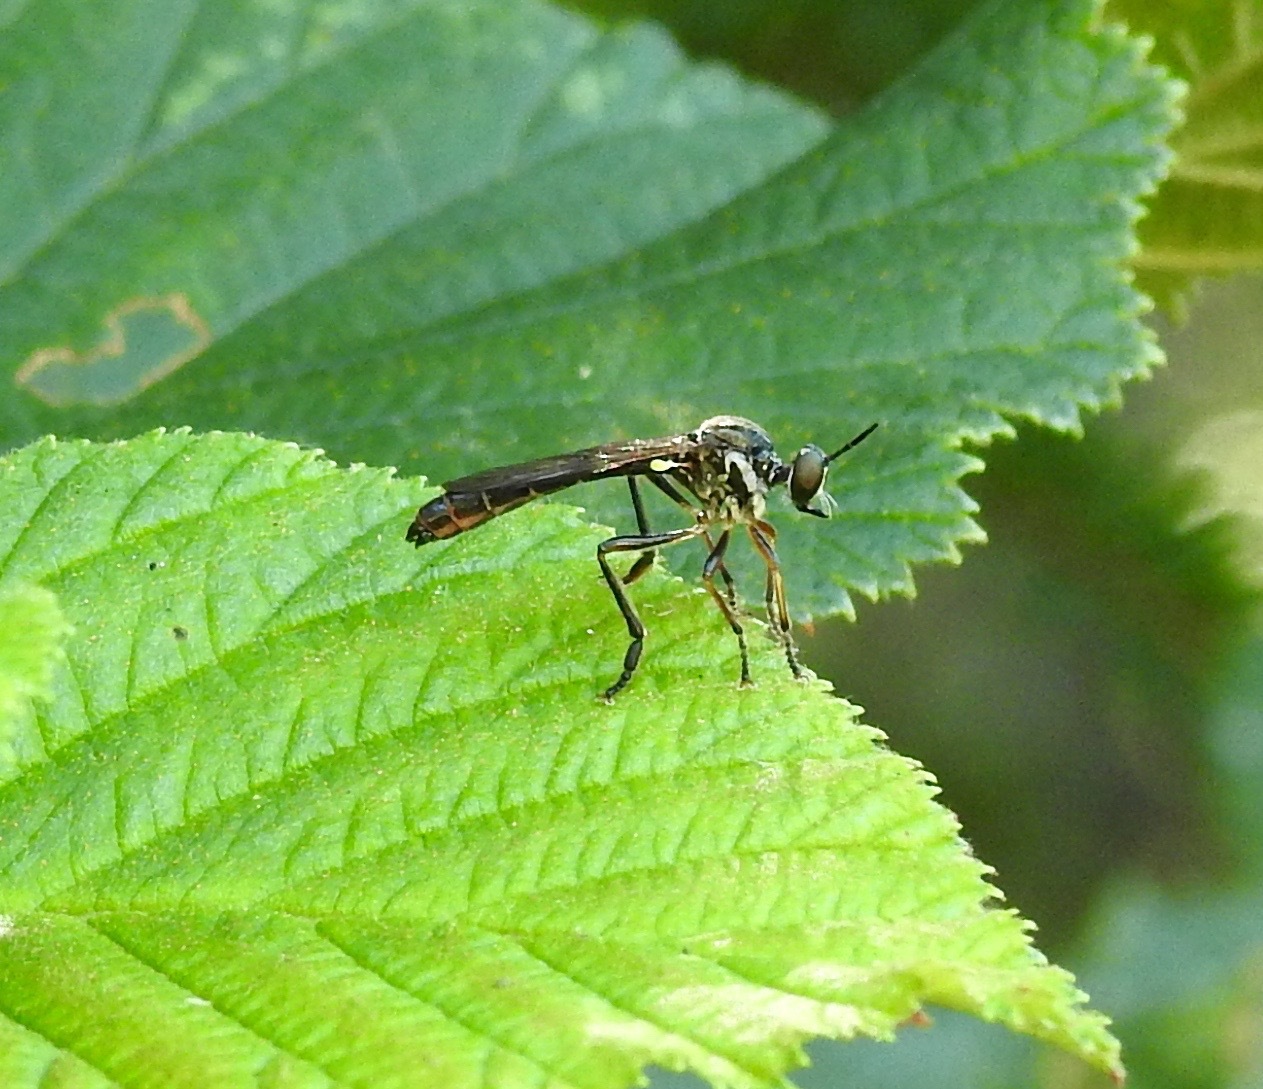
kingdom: Animalia
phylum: Arthropoda
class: Insecta
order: Diptera
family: Asilidae
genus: Dioctria
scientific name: Dioctria hyalipennis
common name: Stripe-legged robberfly
